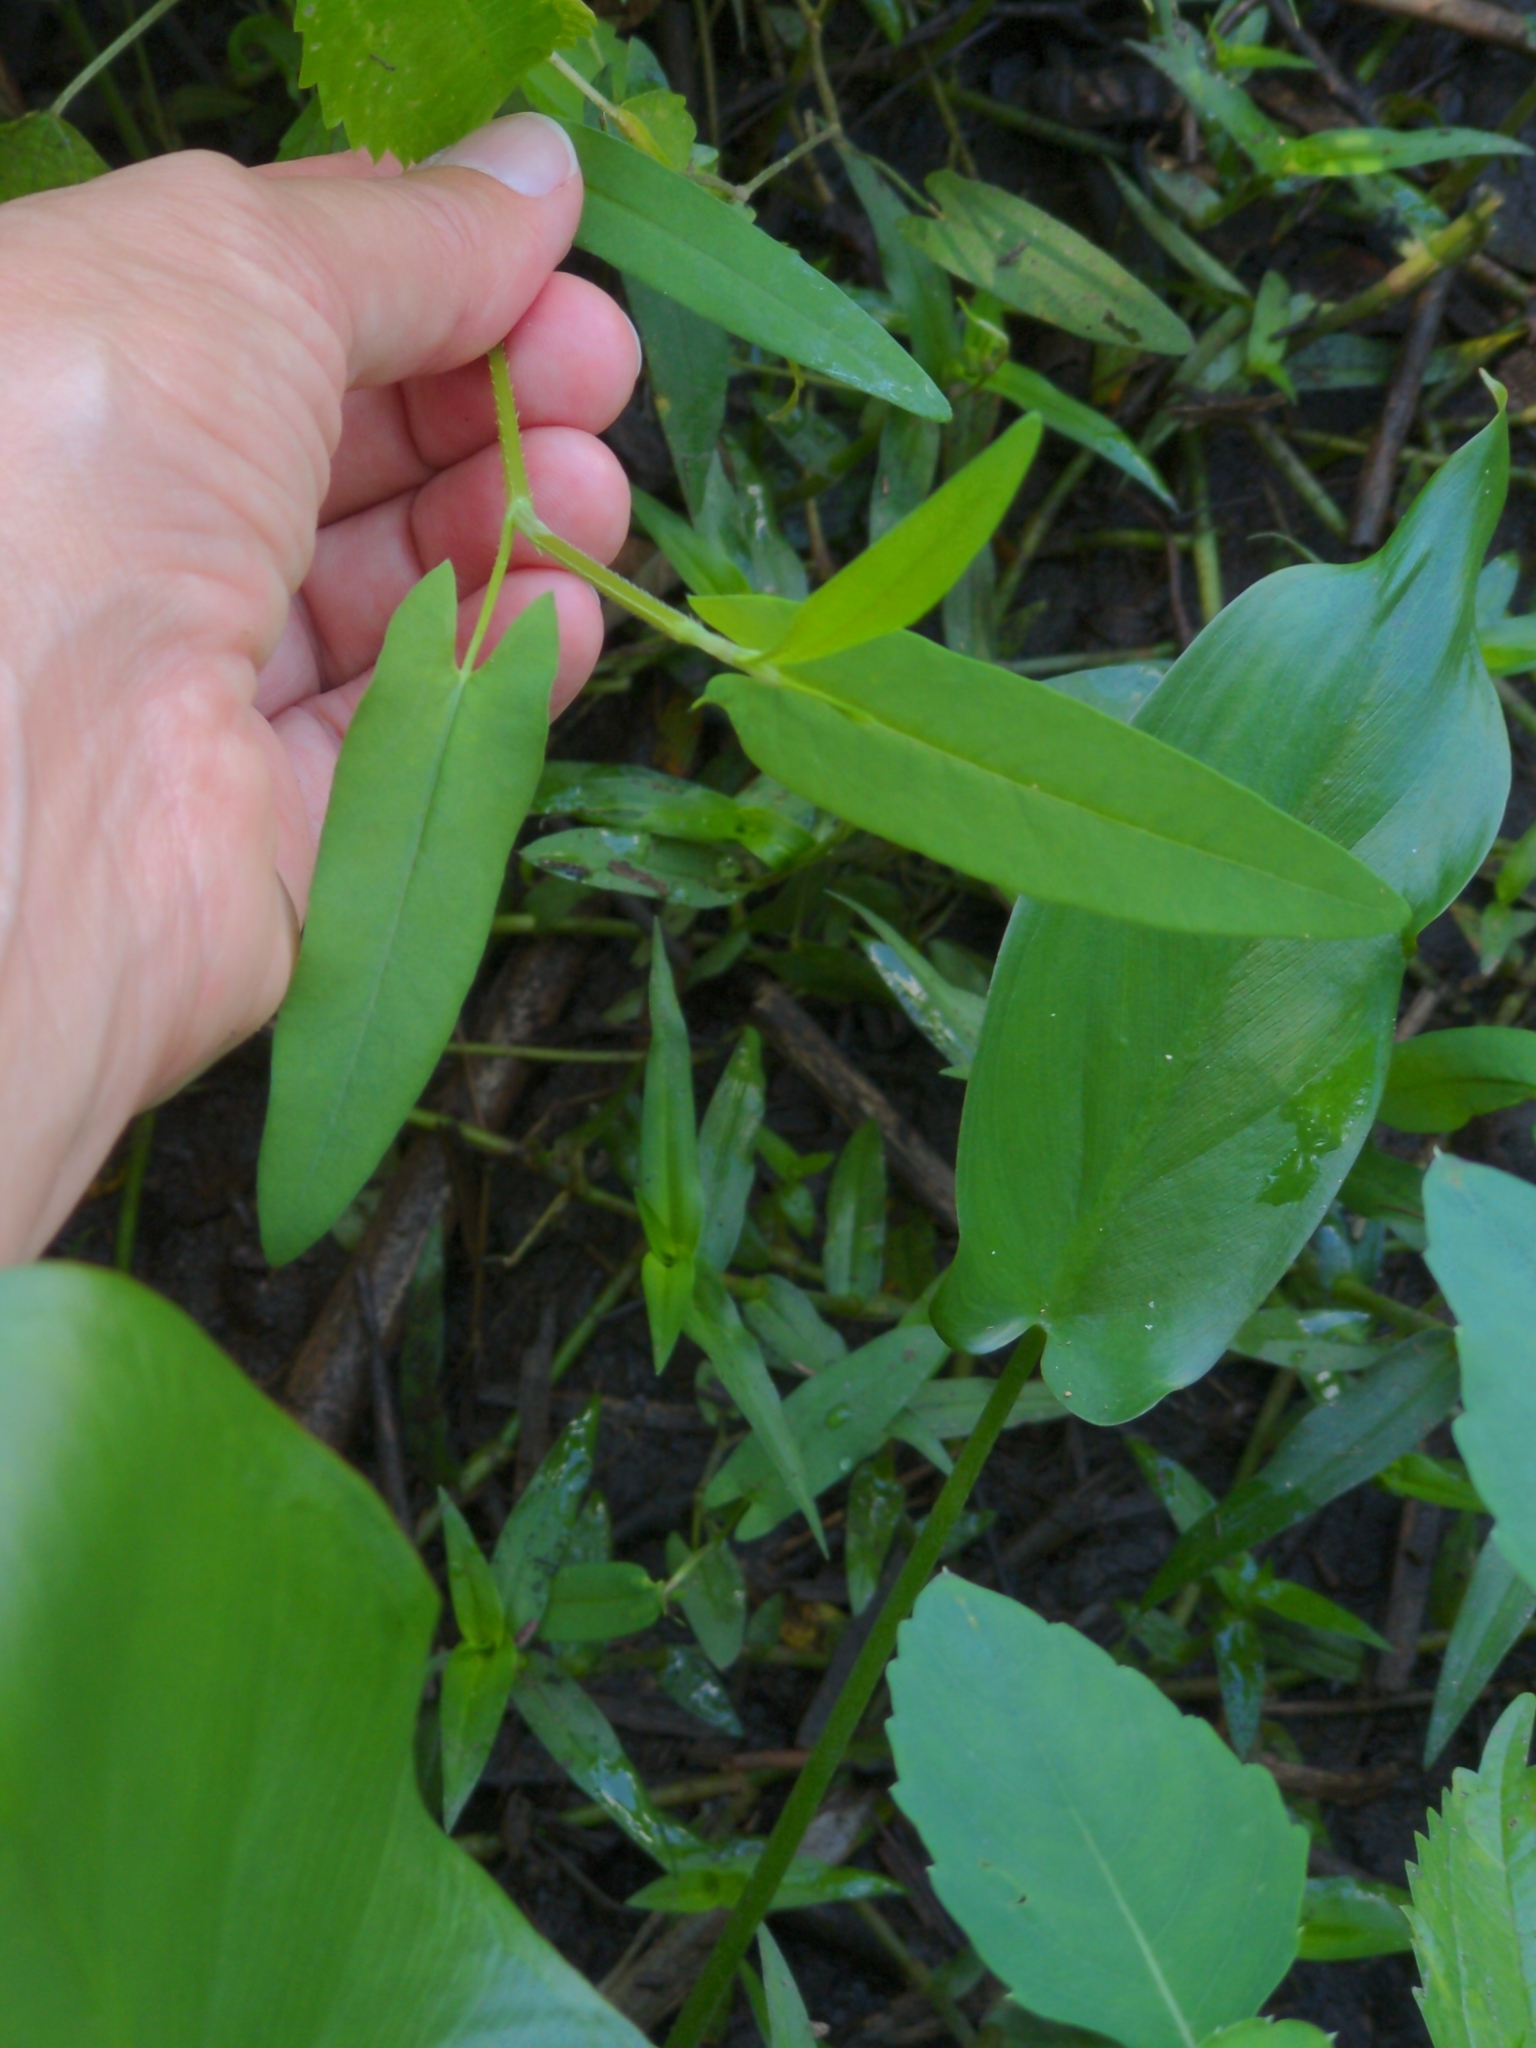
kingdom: Plantae
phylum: Tracheophyta
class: Magnoliopsida
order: Caryophyllales
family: Polygonaceae
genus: Persicaria
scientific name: Persicaria sagittata
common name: American tearthumb
